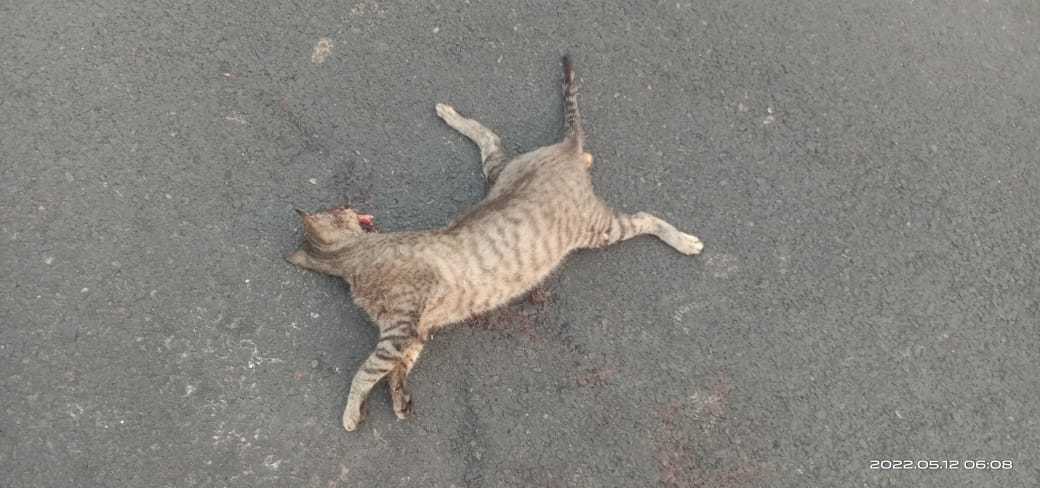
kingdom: Animalia
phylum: Chordata
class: Mammalia
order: Carnivora
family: Felidae
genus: Felis
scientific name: Felis catus
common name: Domestic cat
